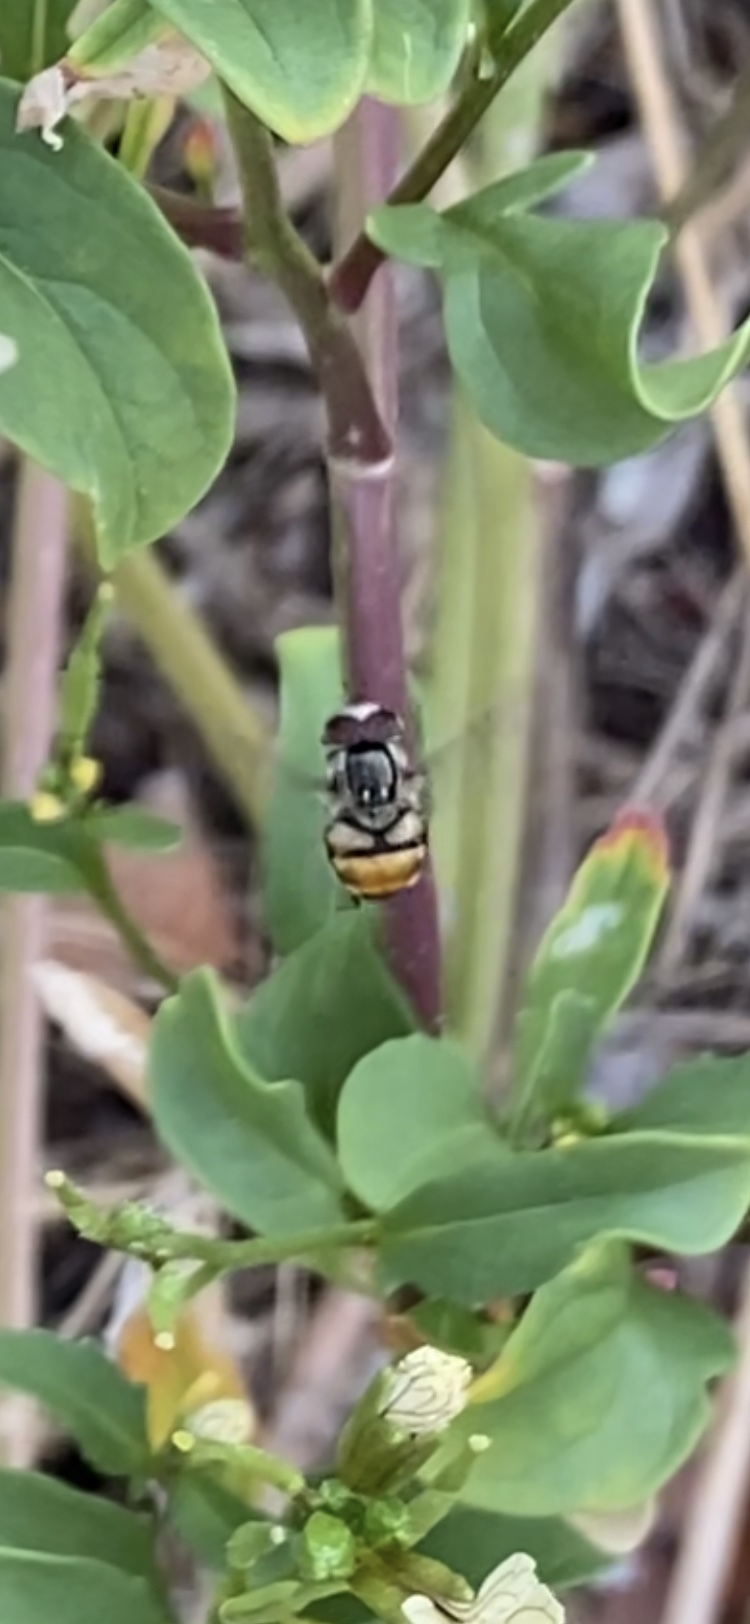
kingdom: Animalia
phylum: Arthropoda
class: Insecta
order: Diptera
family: Syrphidae
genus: Copestylum
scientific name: Copestylum satur
